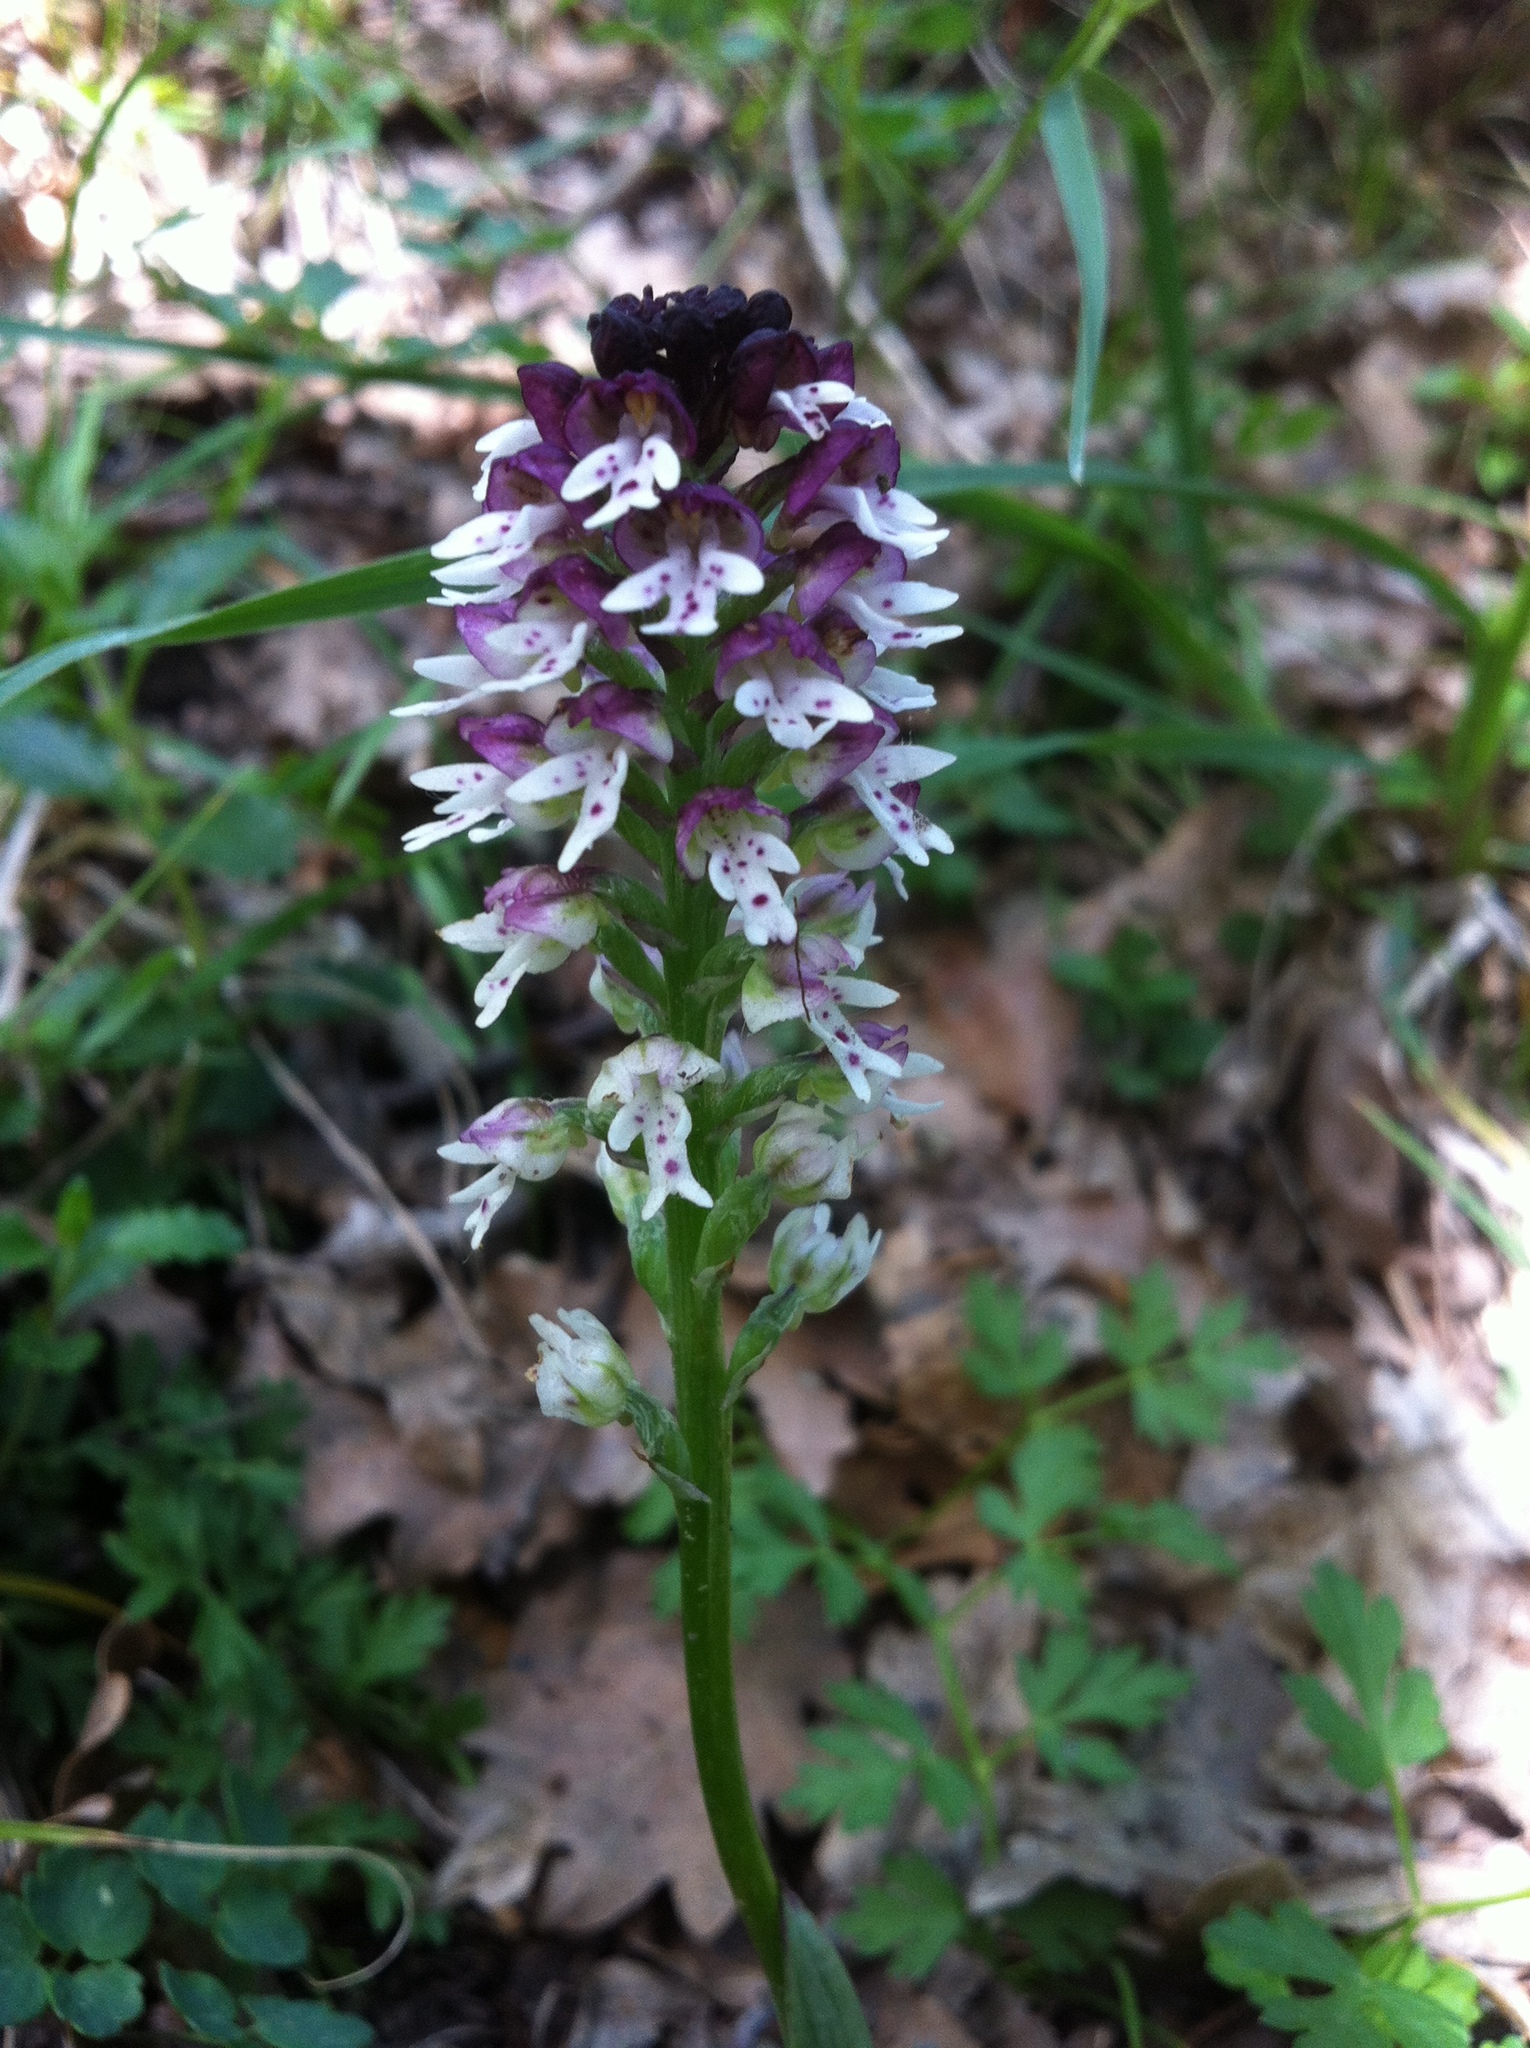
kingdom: Plantae
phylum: Tracheophyta
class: Liliopsida
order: Asparagales
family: Orchidaceae
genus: Neotinea
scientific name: Neotinea ustulata
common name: Burnt orchid
